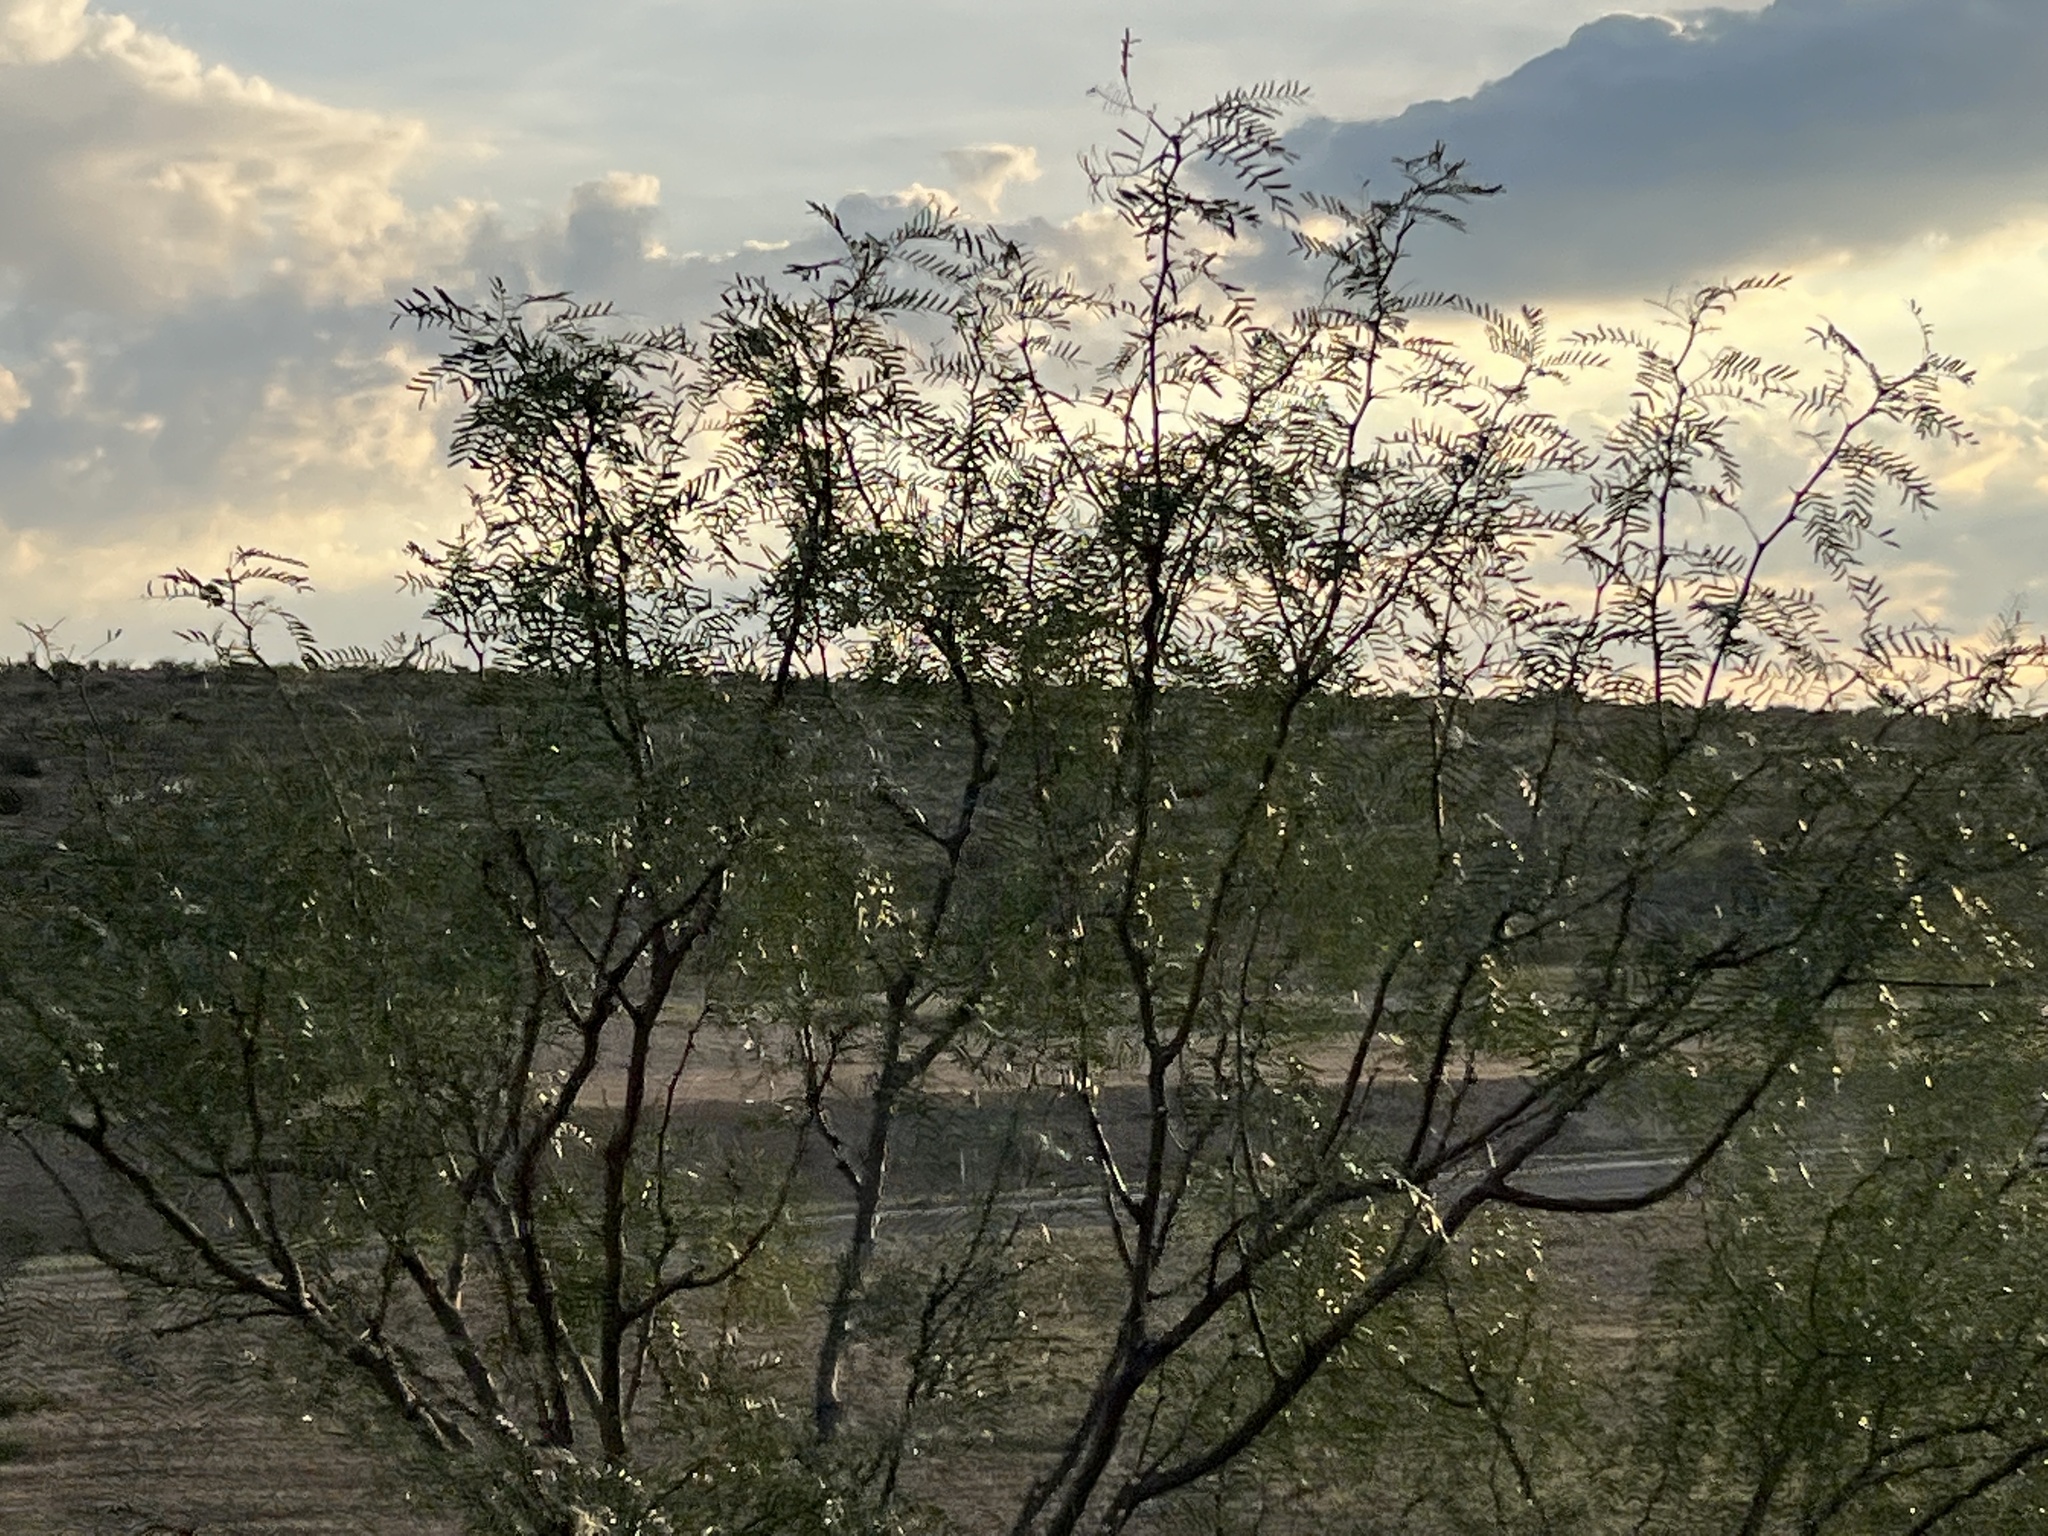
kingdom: Plantae
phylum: Tracheophyta
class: Magnoliopsida
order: Fabales
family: Fabaceae
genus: Prosopis
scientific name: Prosopis glandulosa
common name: Honey mesquite
